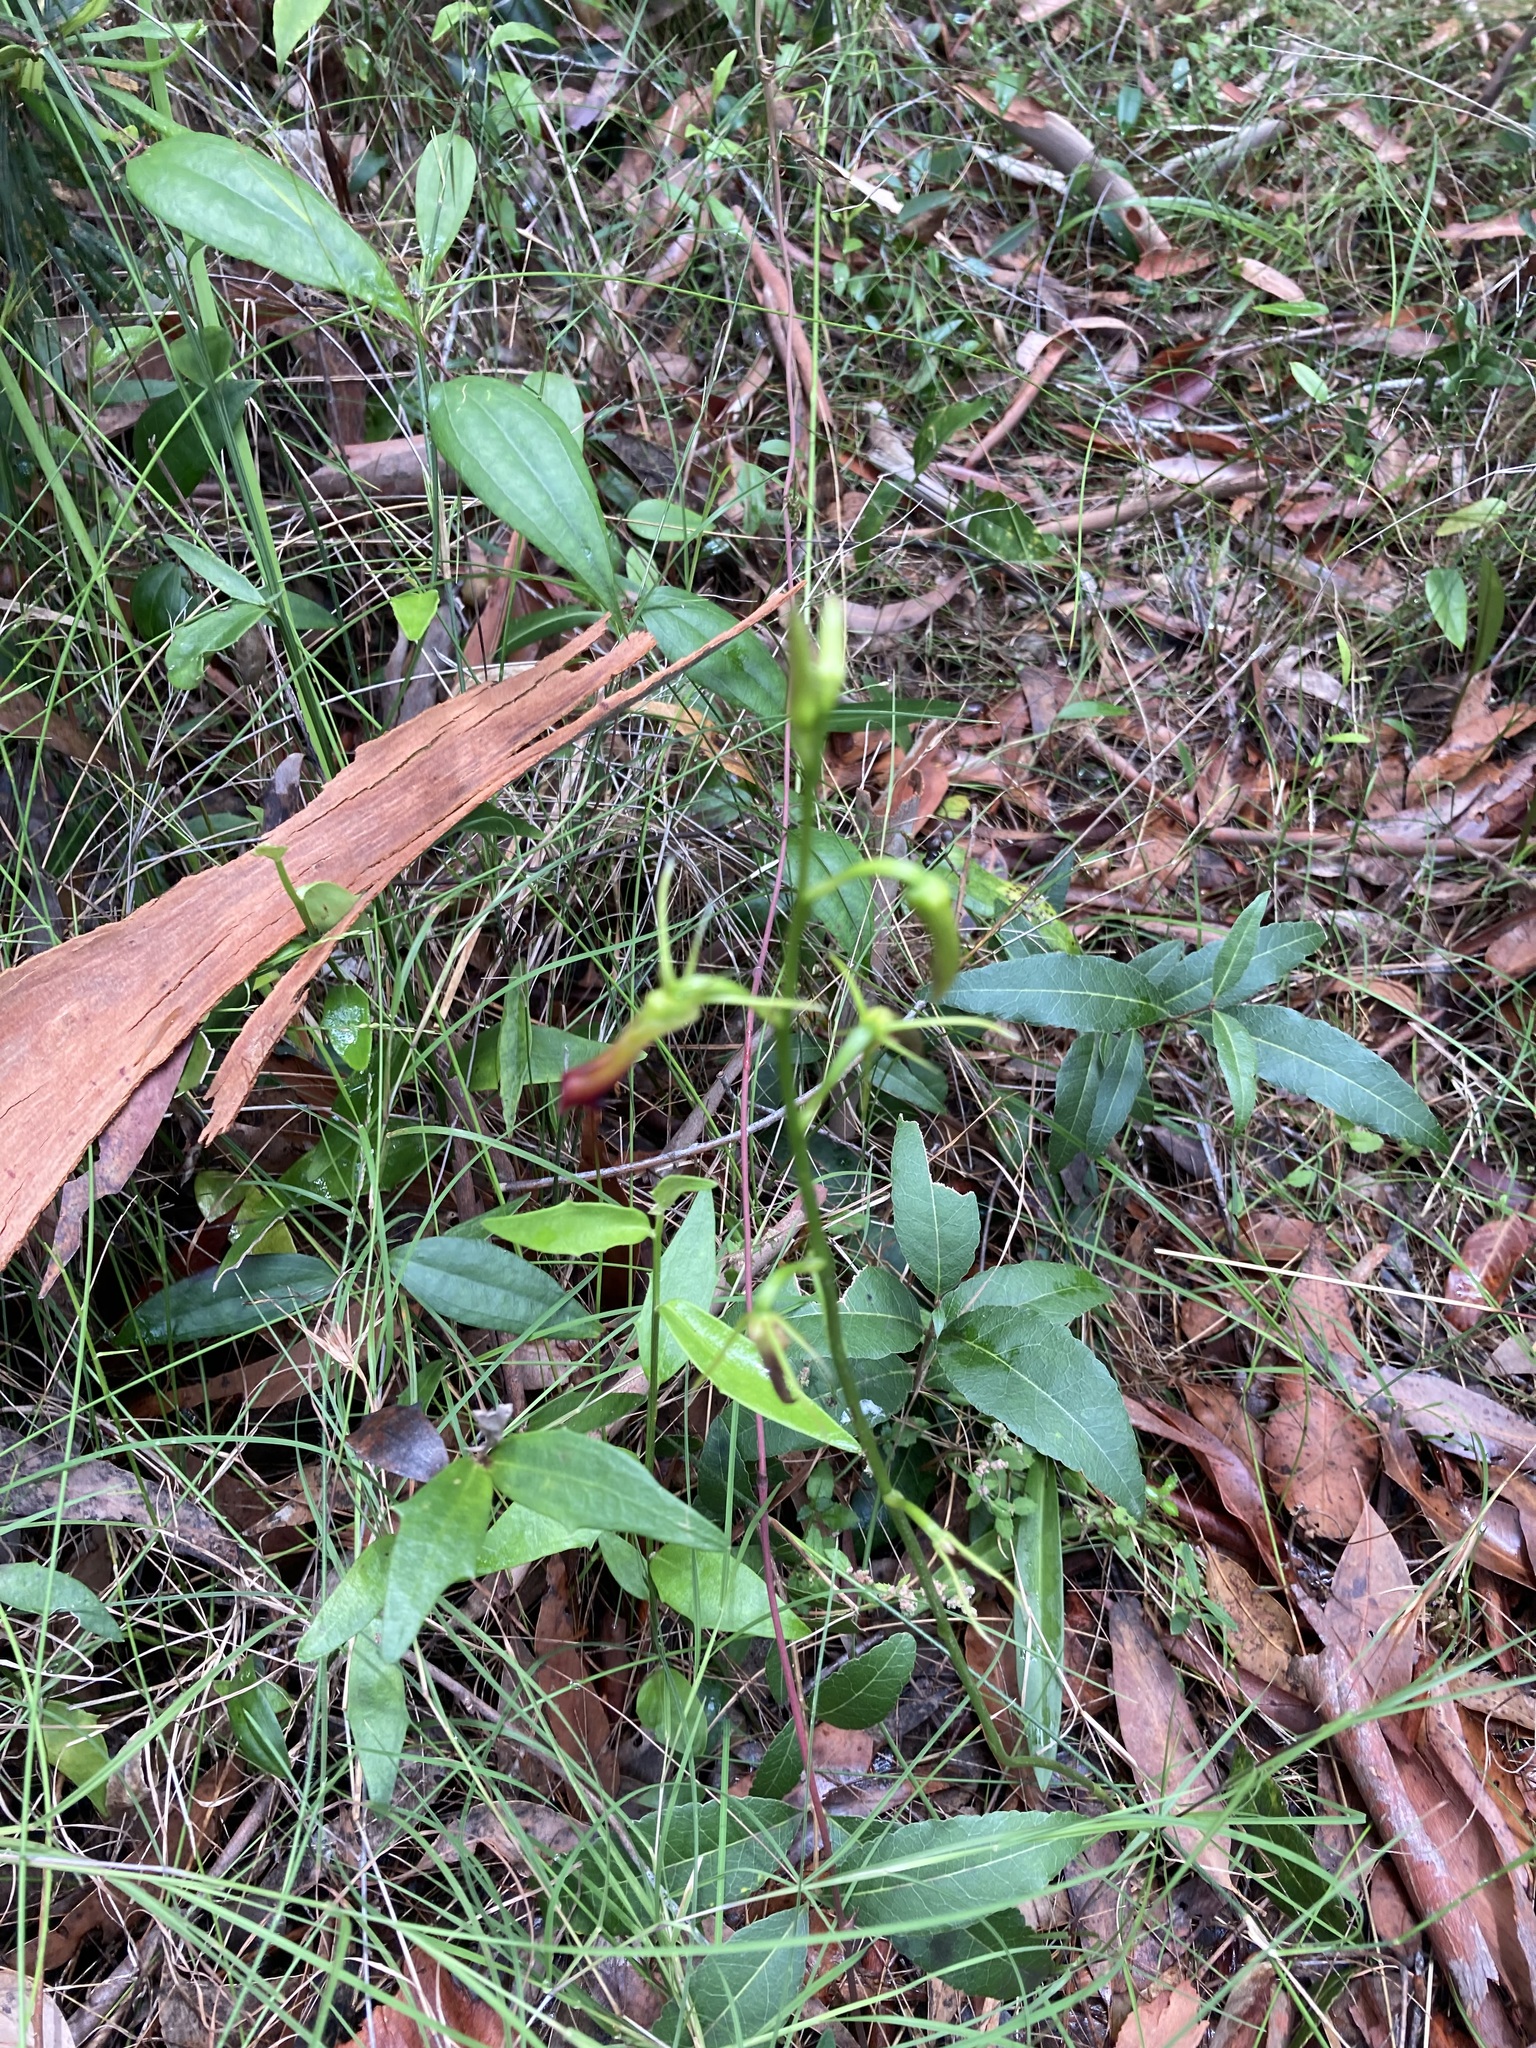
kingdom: Plantae
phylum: Tracheophyta
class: Liliopsida
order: Asparagales
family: Orchidaceae
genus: Cryptostylis
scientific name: Cryptostylis subulata
